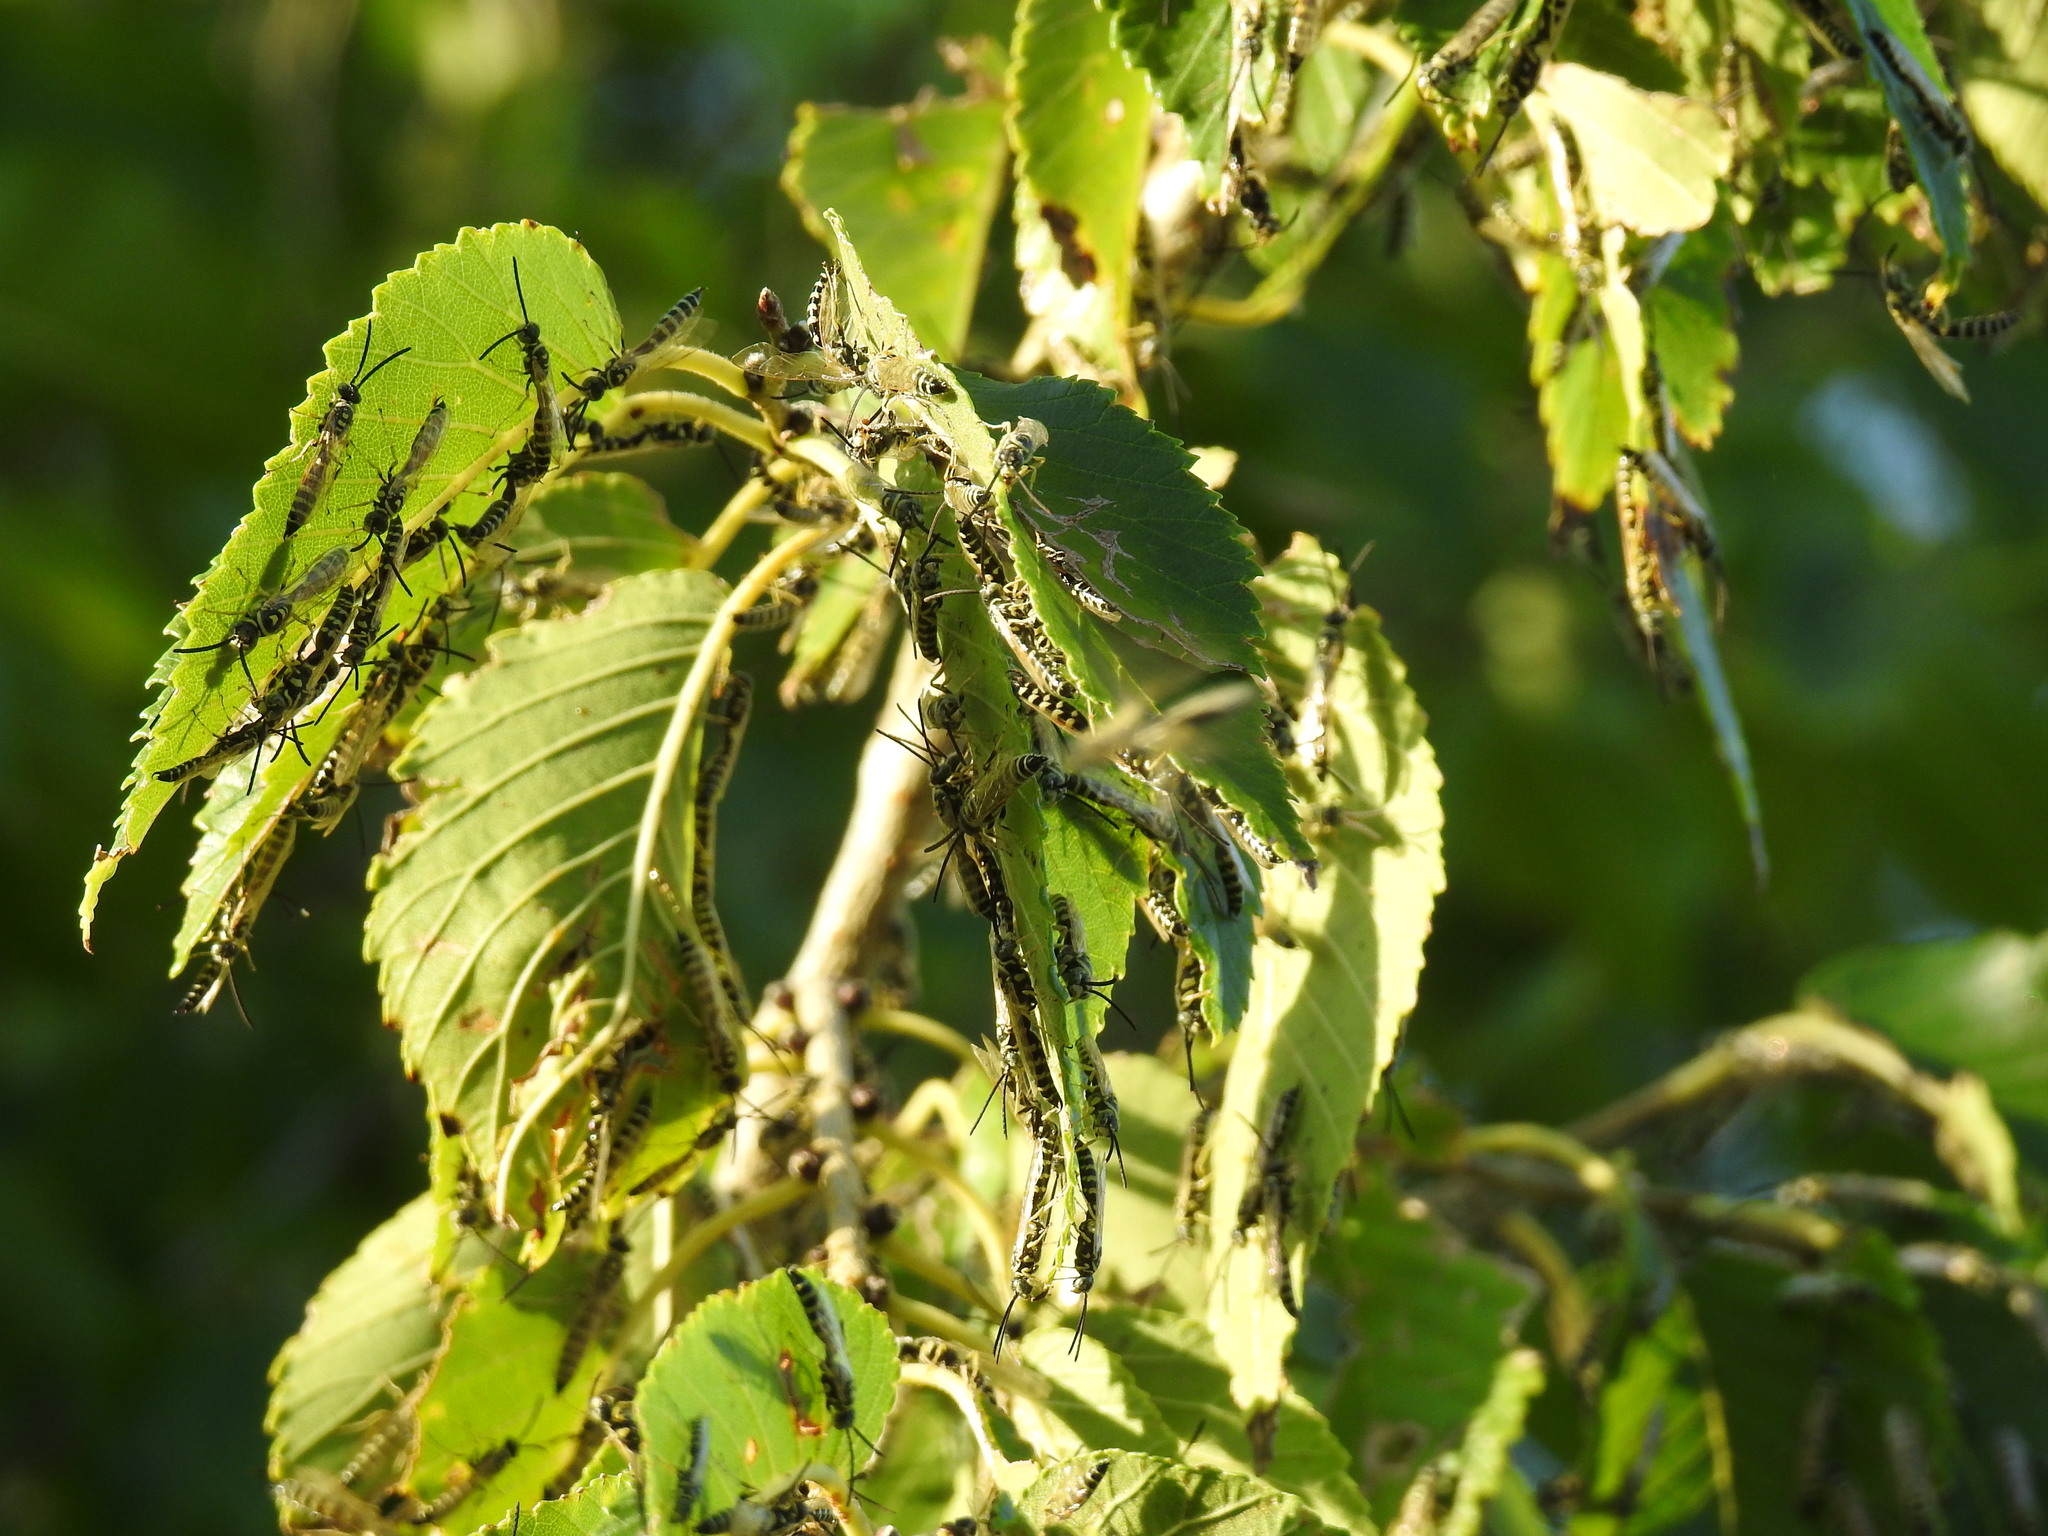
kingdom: Animalia
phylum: Arthropoda
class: Insecta
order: Hymenoptera
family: Tiphiidae
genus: Myzinum
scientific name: Myzinum frontalis
